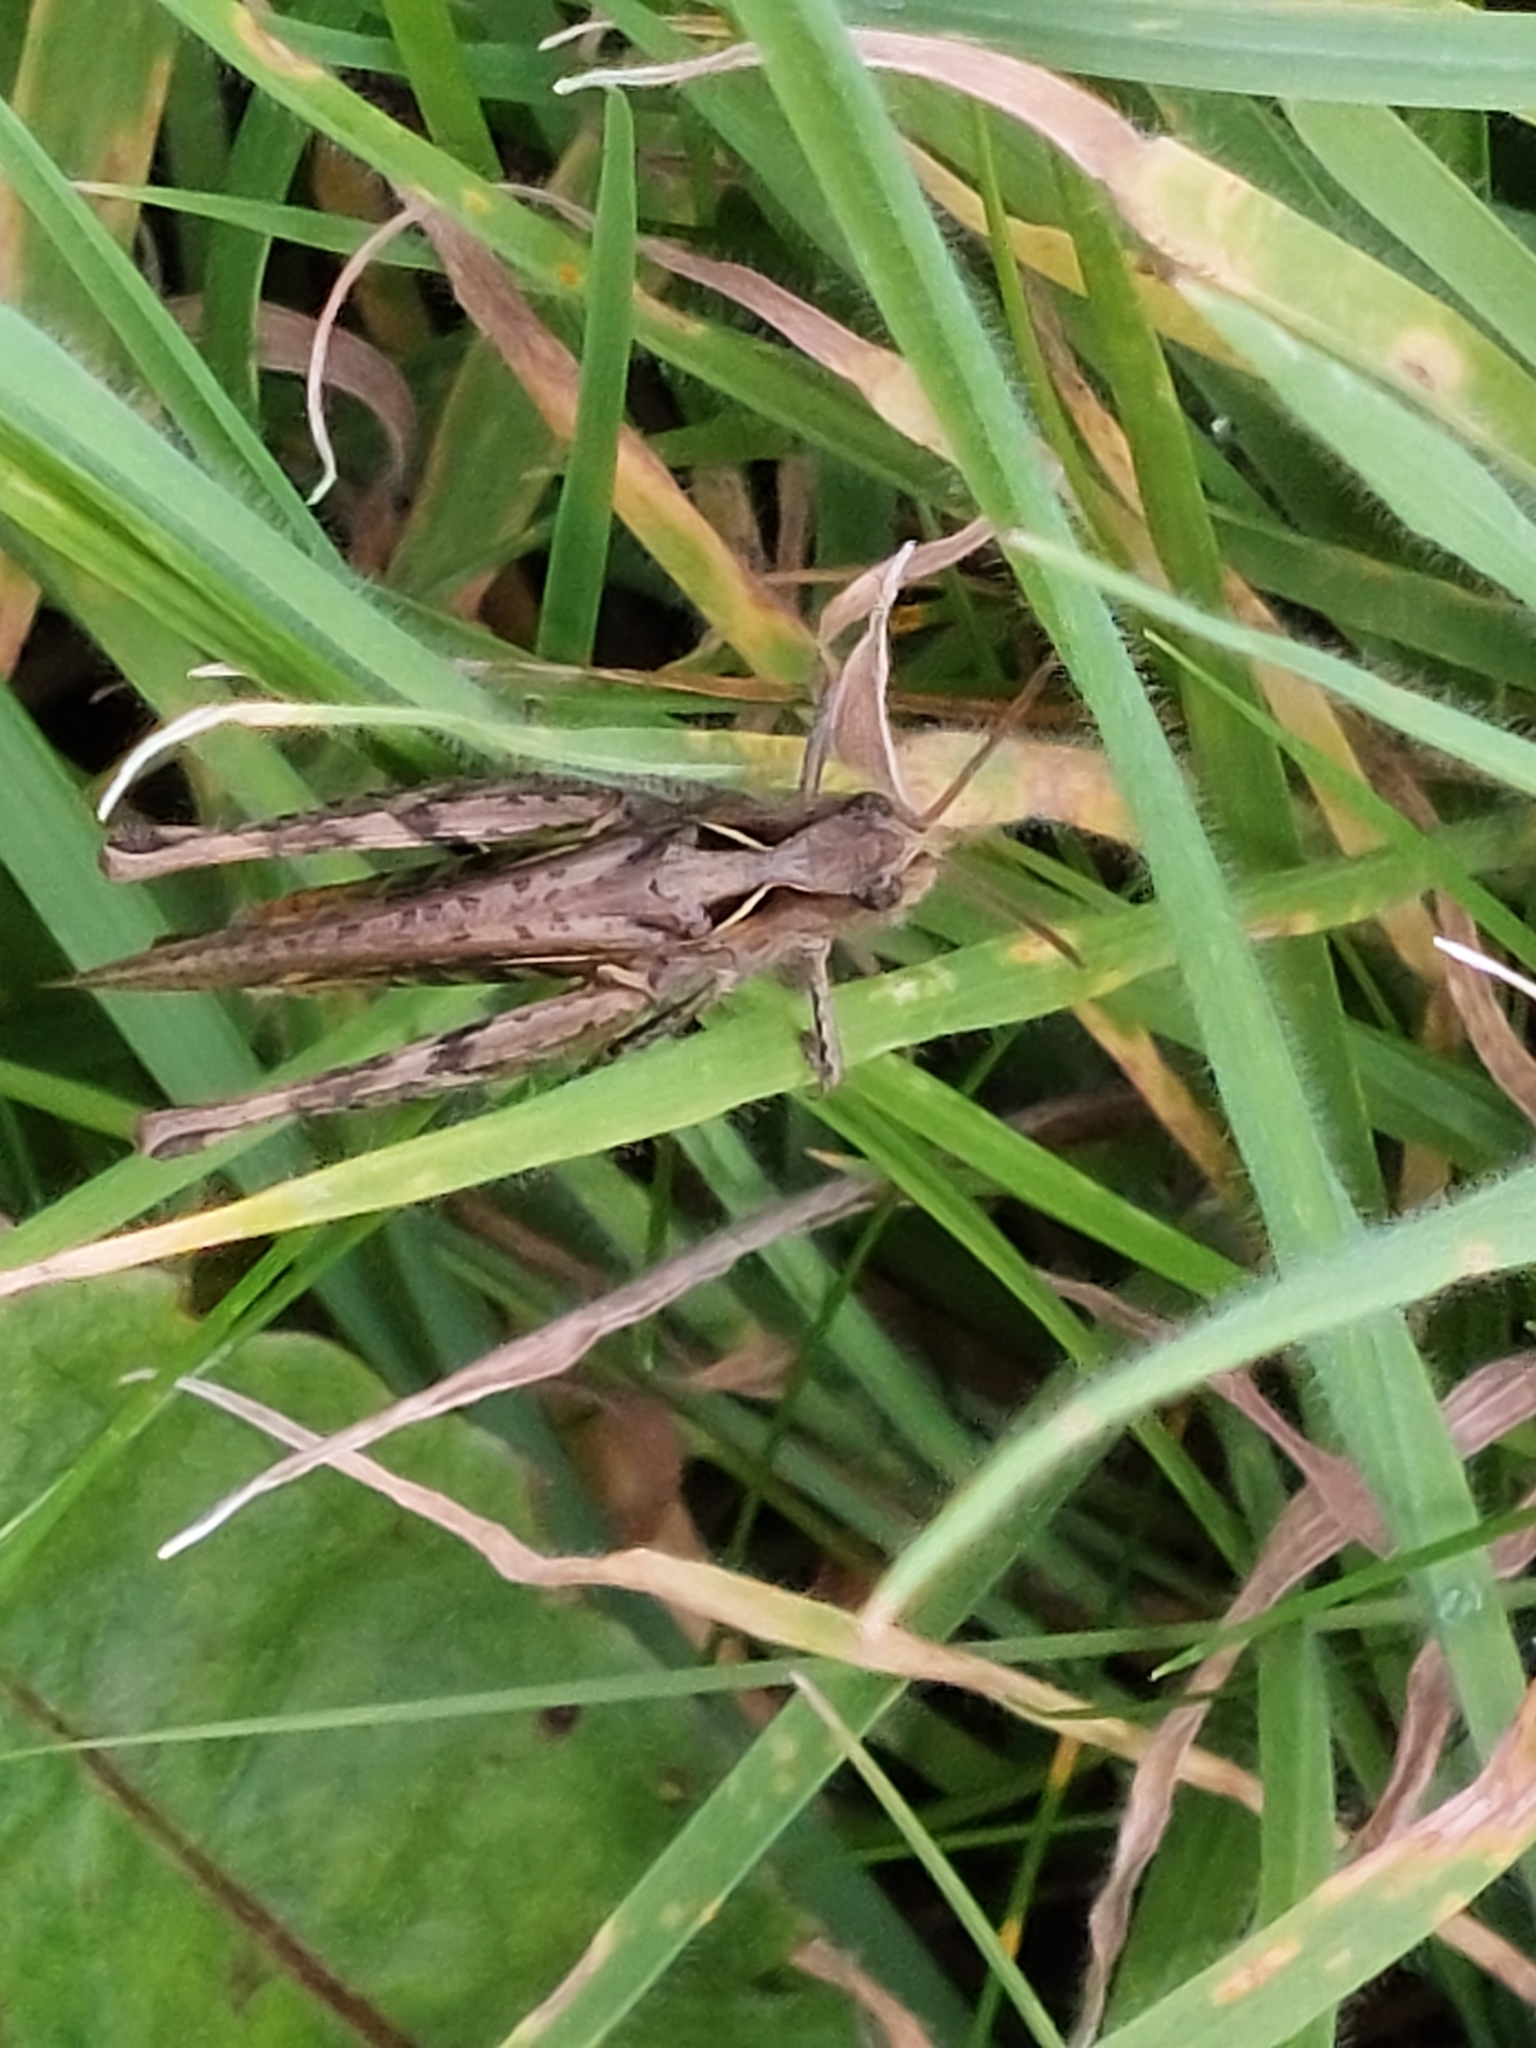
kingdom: Animalia
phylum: Arthropoda
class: Insecta
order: Orthoptera
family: Acrididae
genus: Chorthippus
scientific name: Chorthippus brunneus
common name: Field grasshopper
